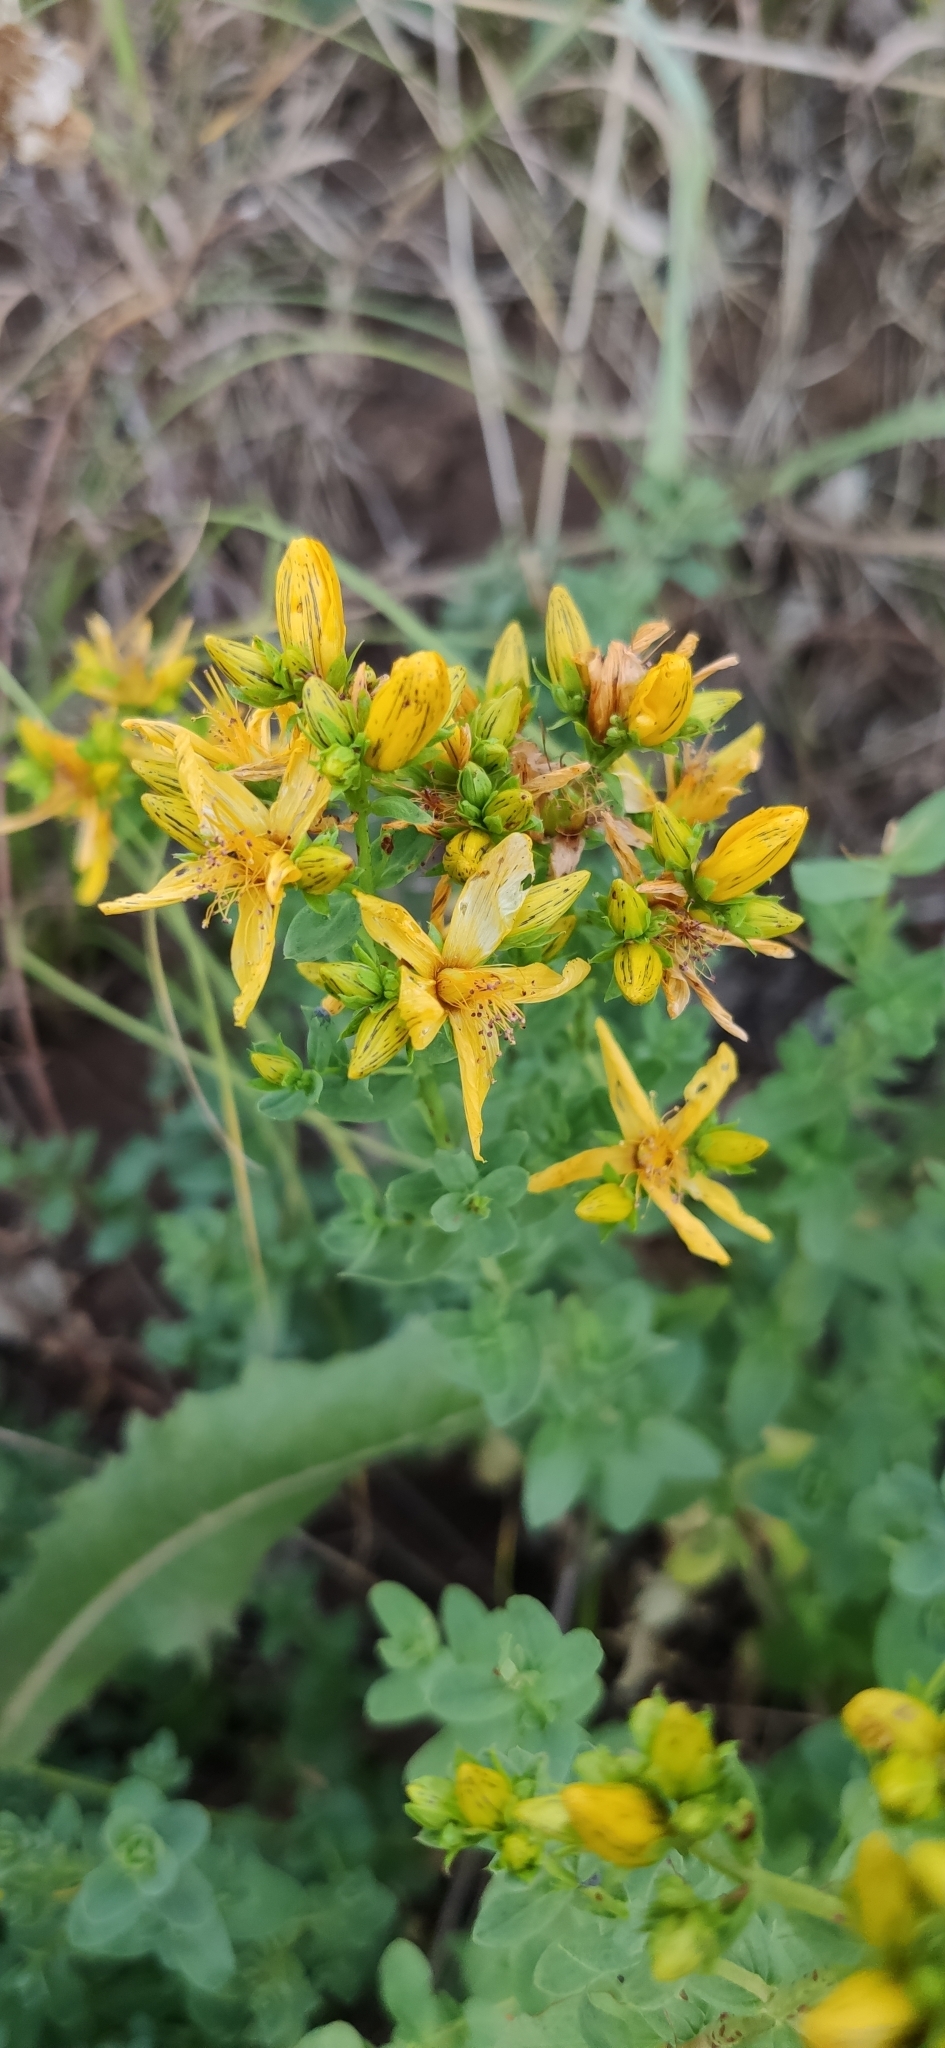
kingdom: Plantae
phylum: Tracheophyta
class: Magnoliopsida
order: Malpighiales
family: Hypericaceae
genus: Hypericum
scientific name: Hypericum perforatum
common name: Common st. johnswort
